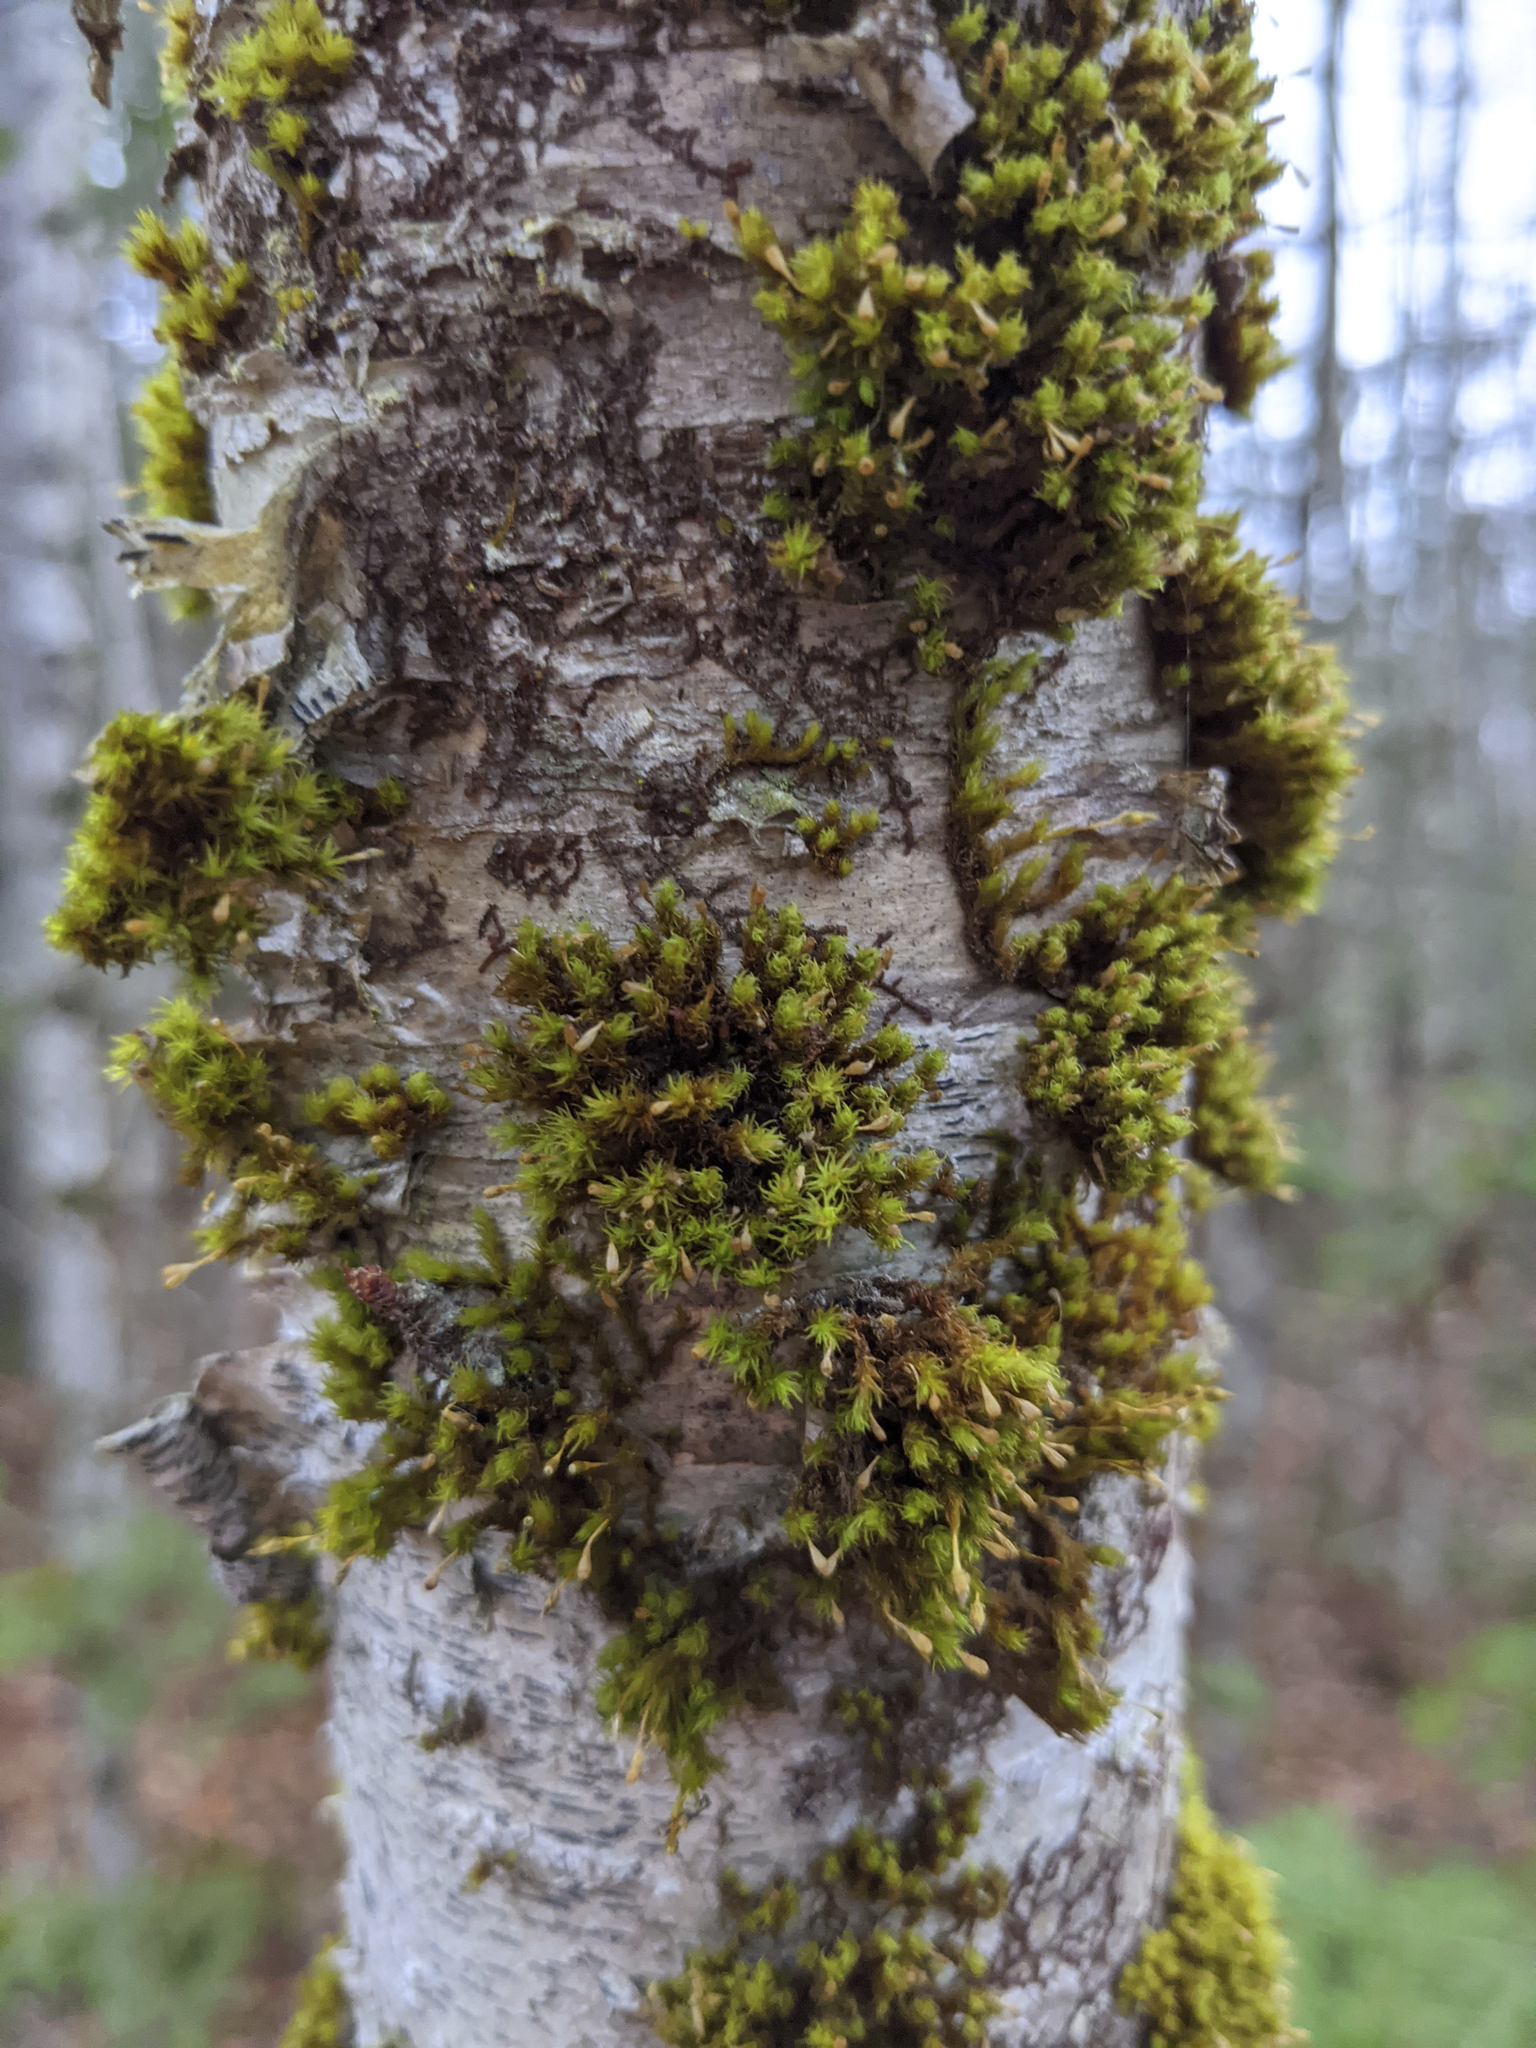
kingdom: Plantae
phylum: Bryophyta
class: Bryopsida
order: Orthotrichales
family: Orthotrichaceae
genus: Ulota
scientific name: Ulota crispa
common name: Crisped pincushion moss
